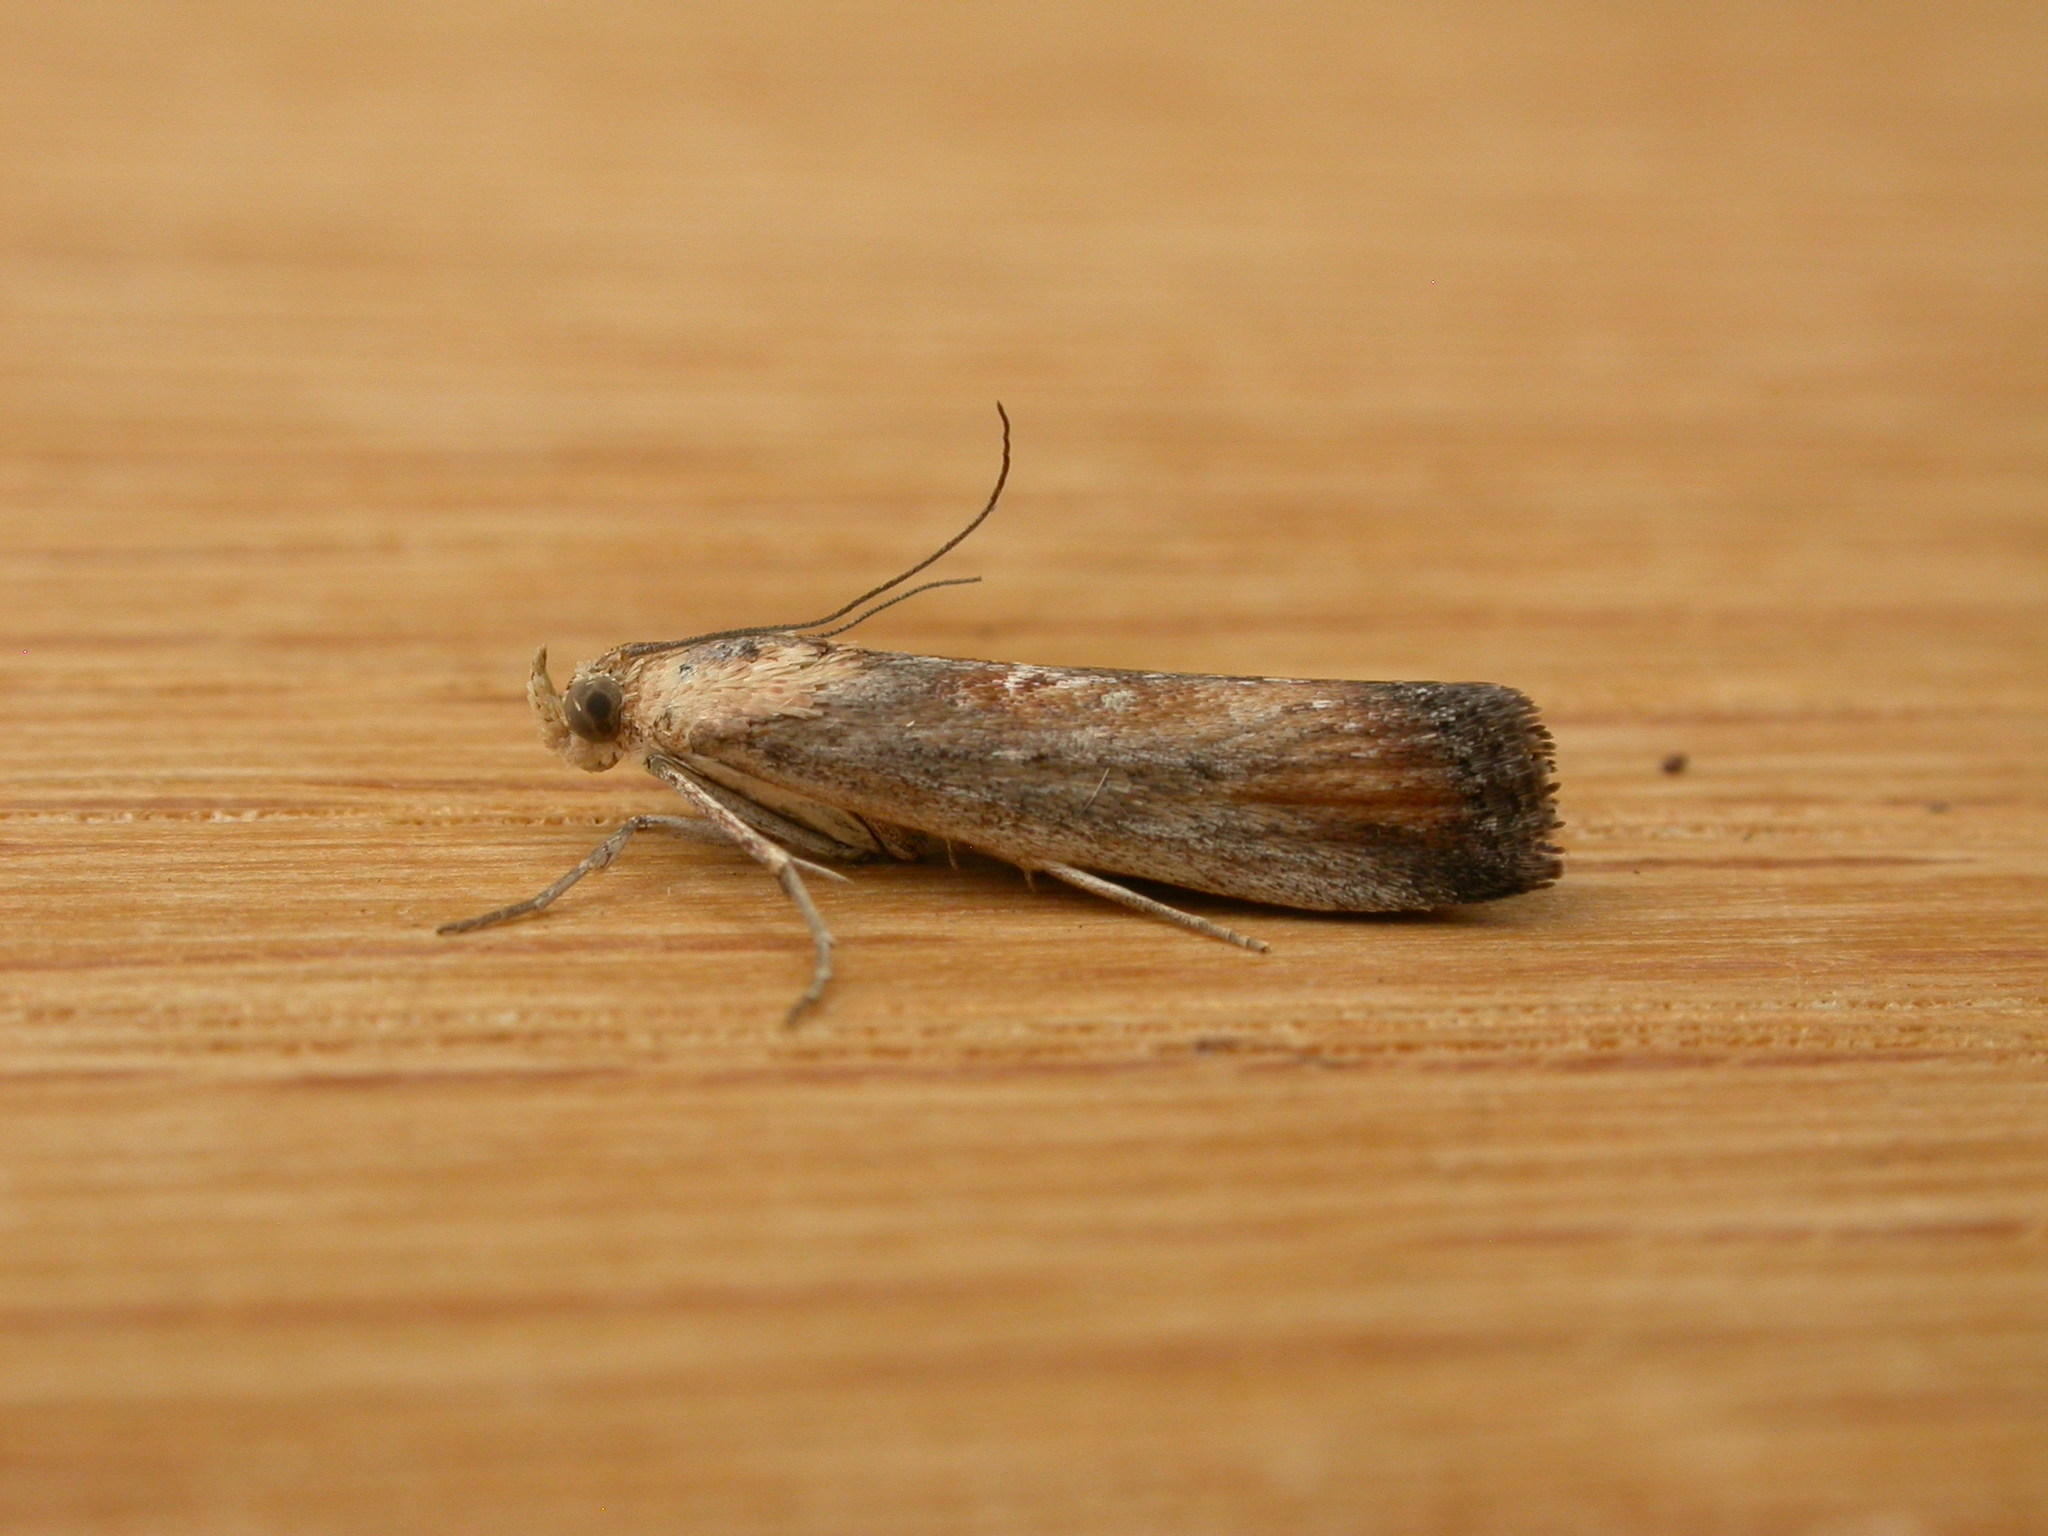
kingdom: Animalia
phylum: Arthropoda
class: Insecta
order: Lepidoptera
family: Pyralidae
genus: Morosaphycita
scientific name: Morosaphycita oculiferella
